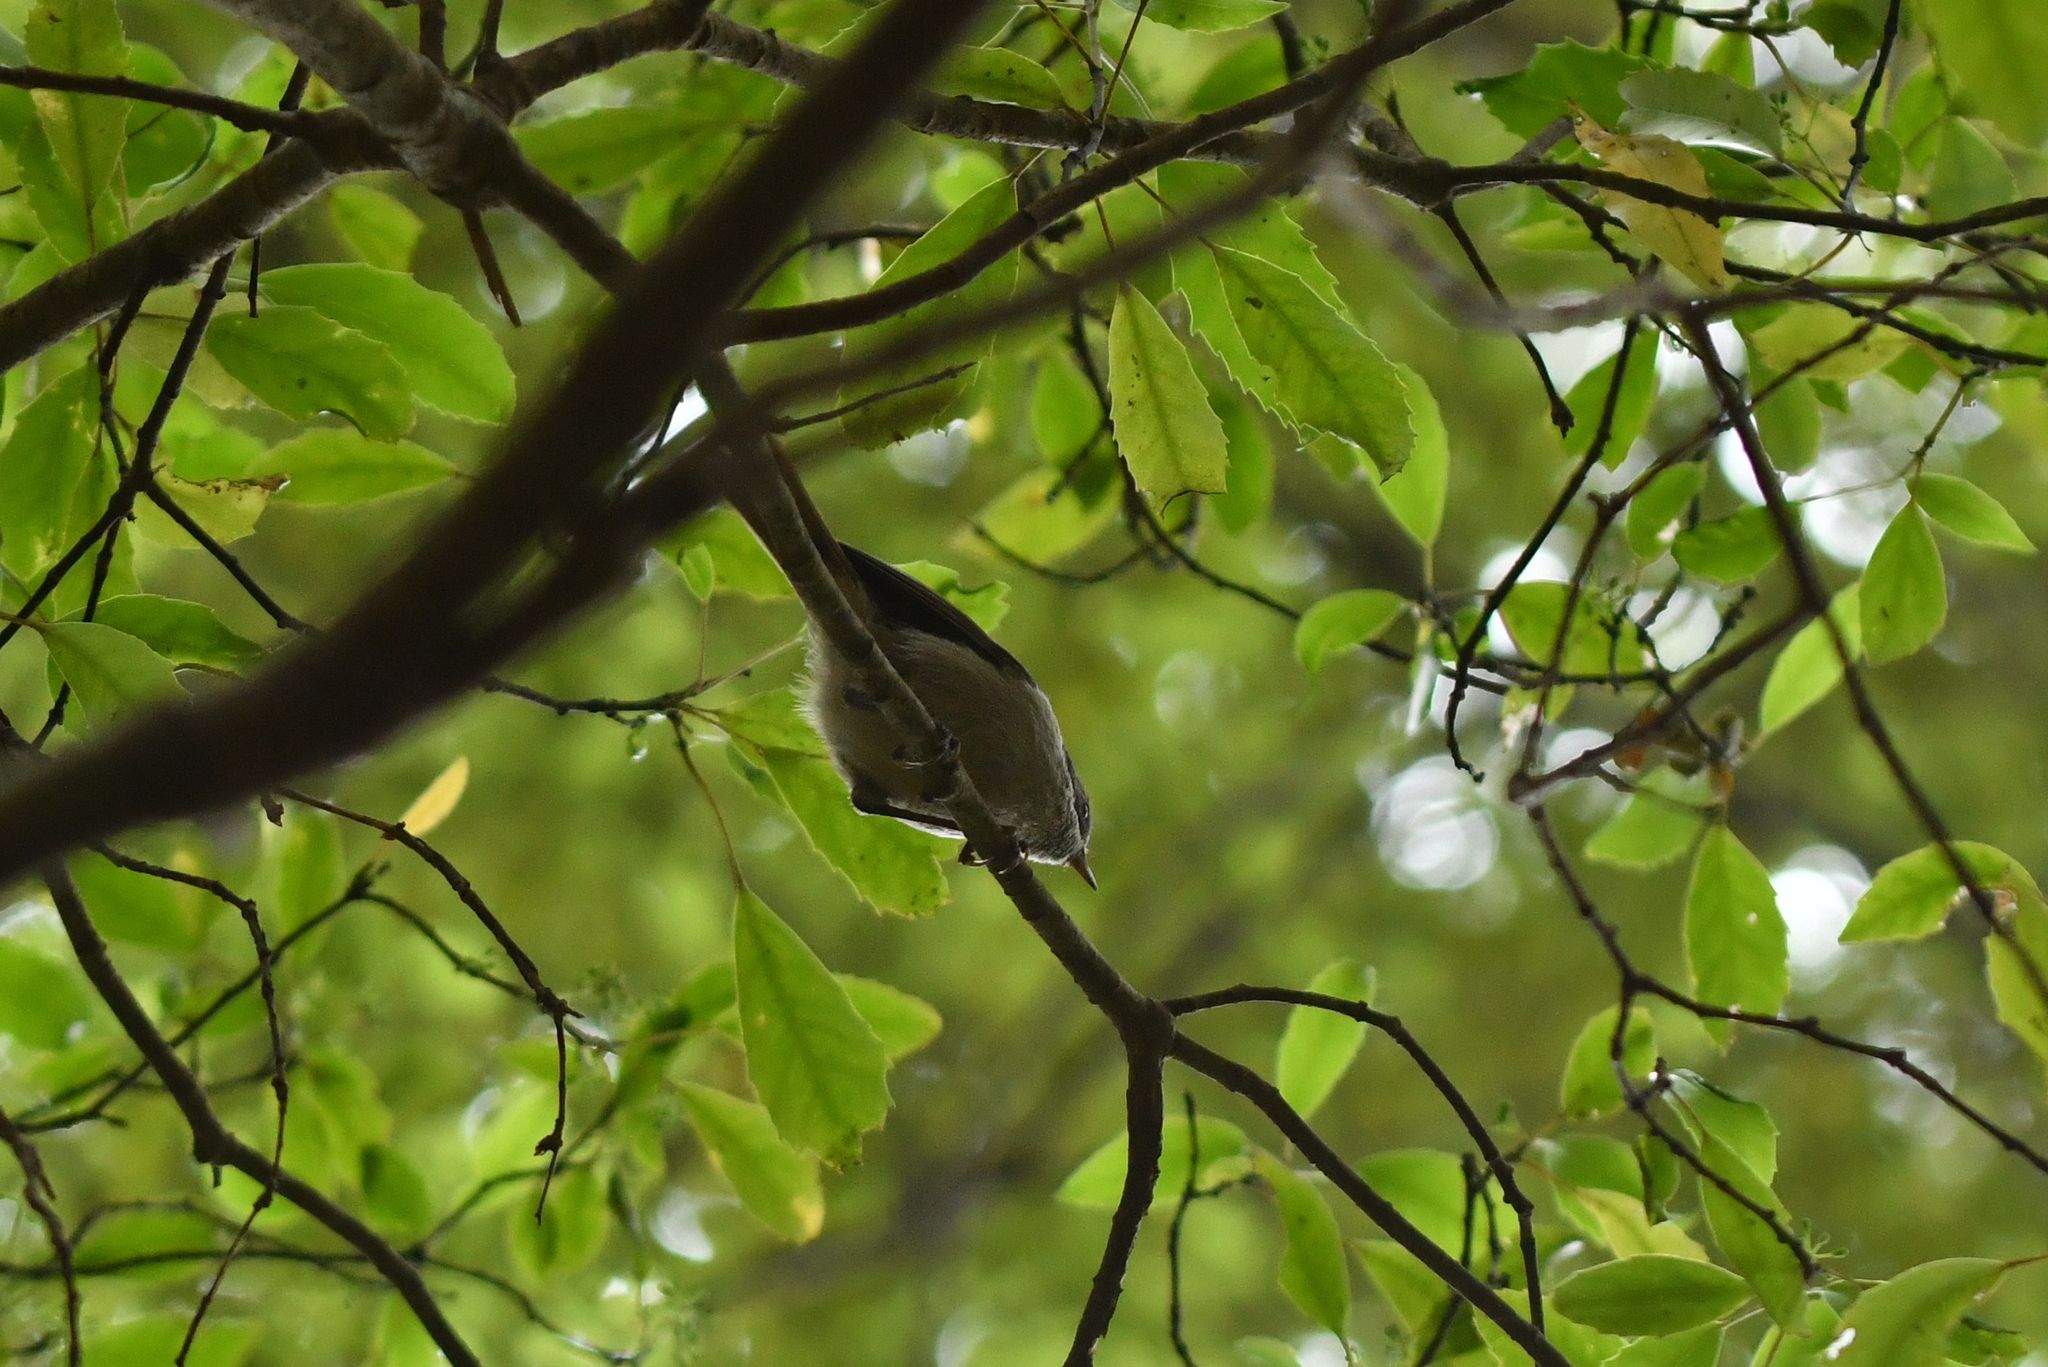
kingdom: Animalia
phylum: Chordata
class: Aves
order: Passeriformes
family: Acanthizidae
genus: Finschia
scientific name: Finschia novaeseelandiae
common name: Pipipi
